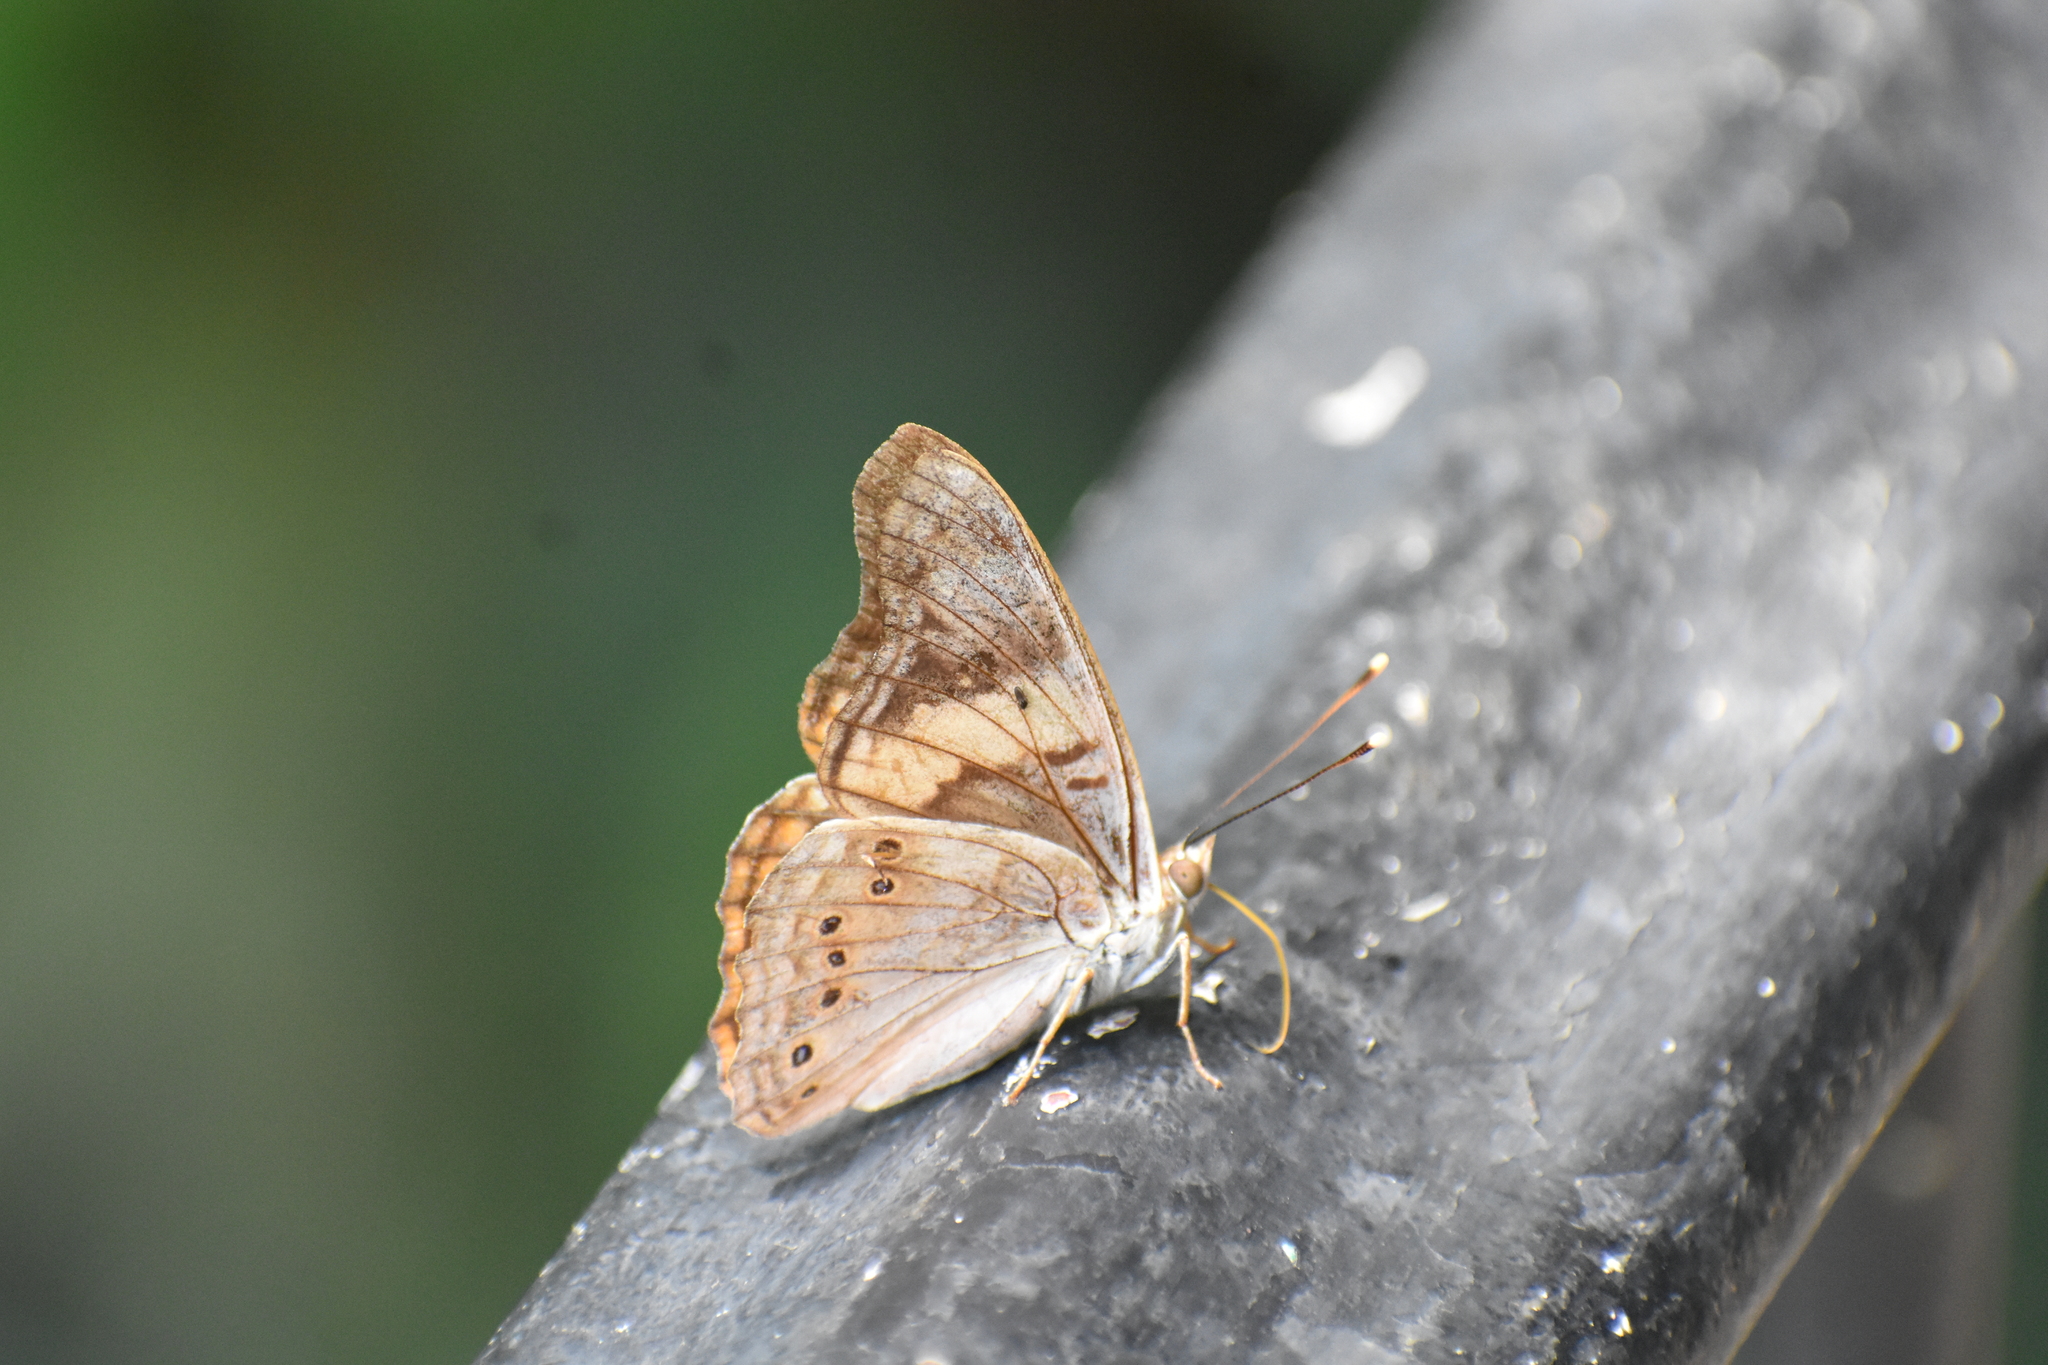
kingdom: Animalia
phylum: Arthropoda
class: Insecta
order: Lepidoptera
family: Nymphalidae
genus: Asterocampa
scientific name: Asterocampa idyja
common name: Dusky emperor
